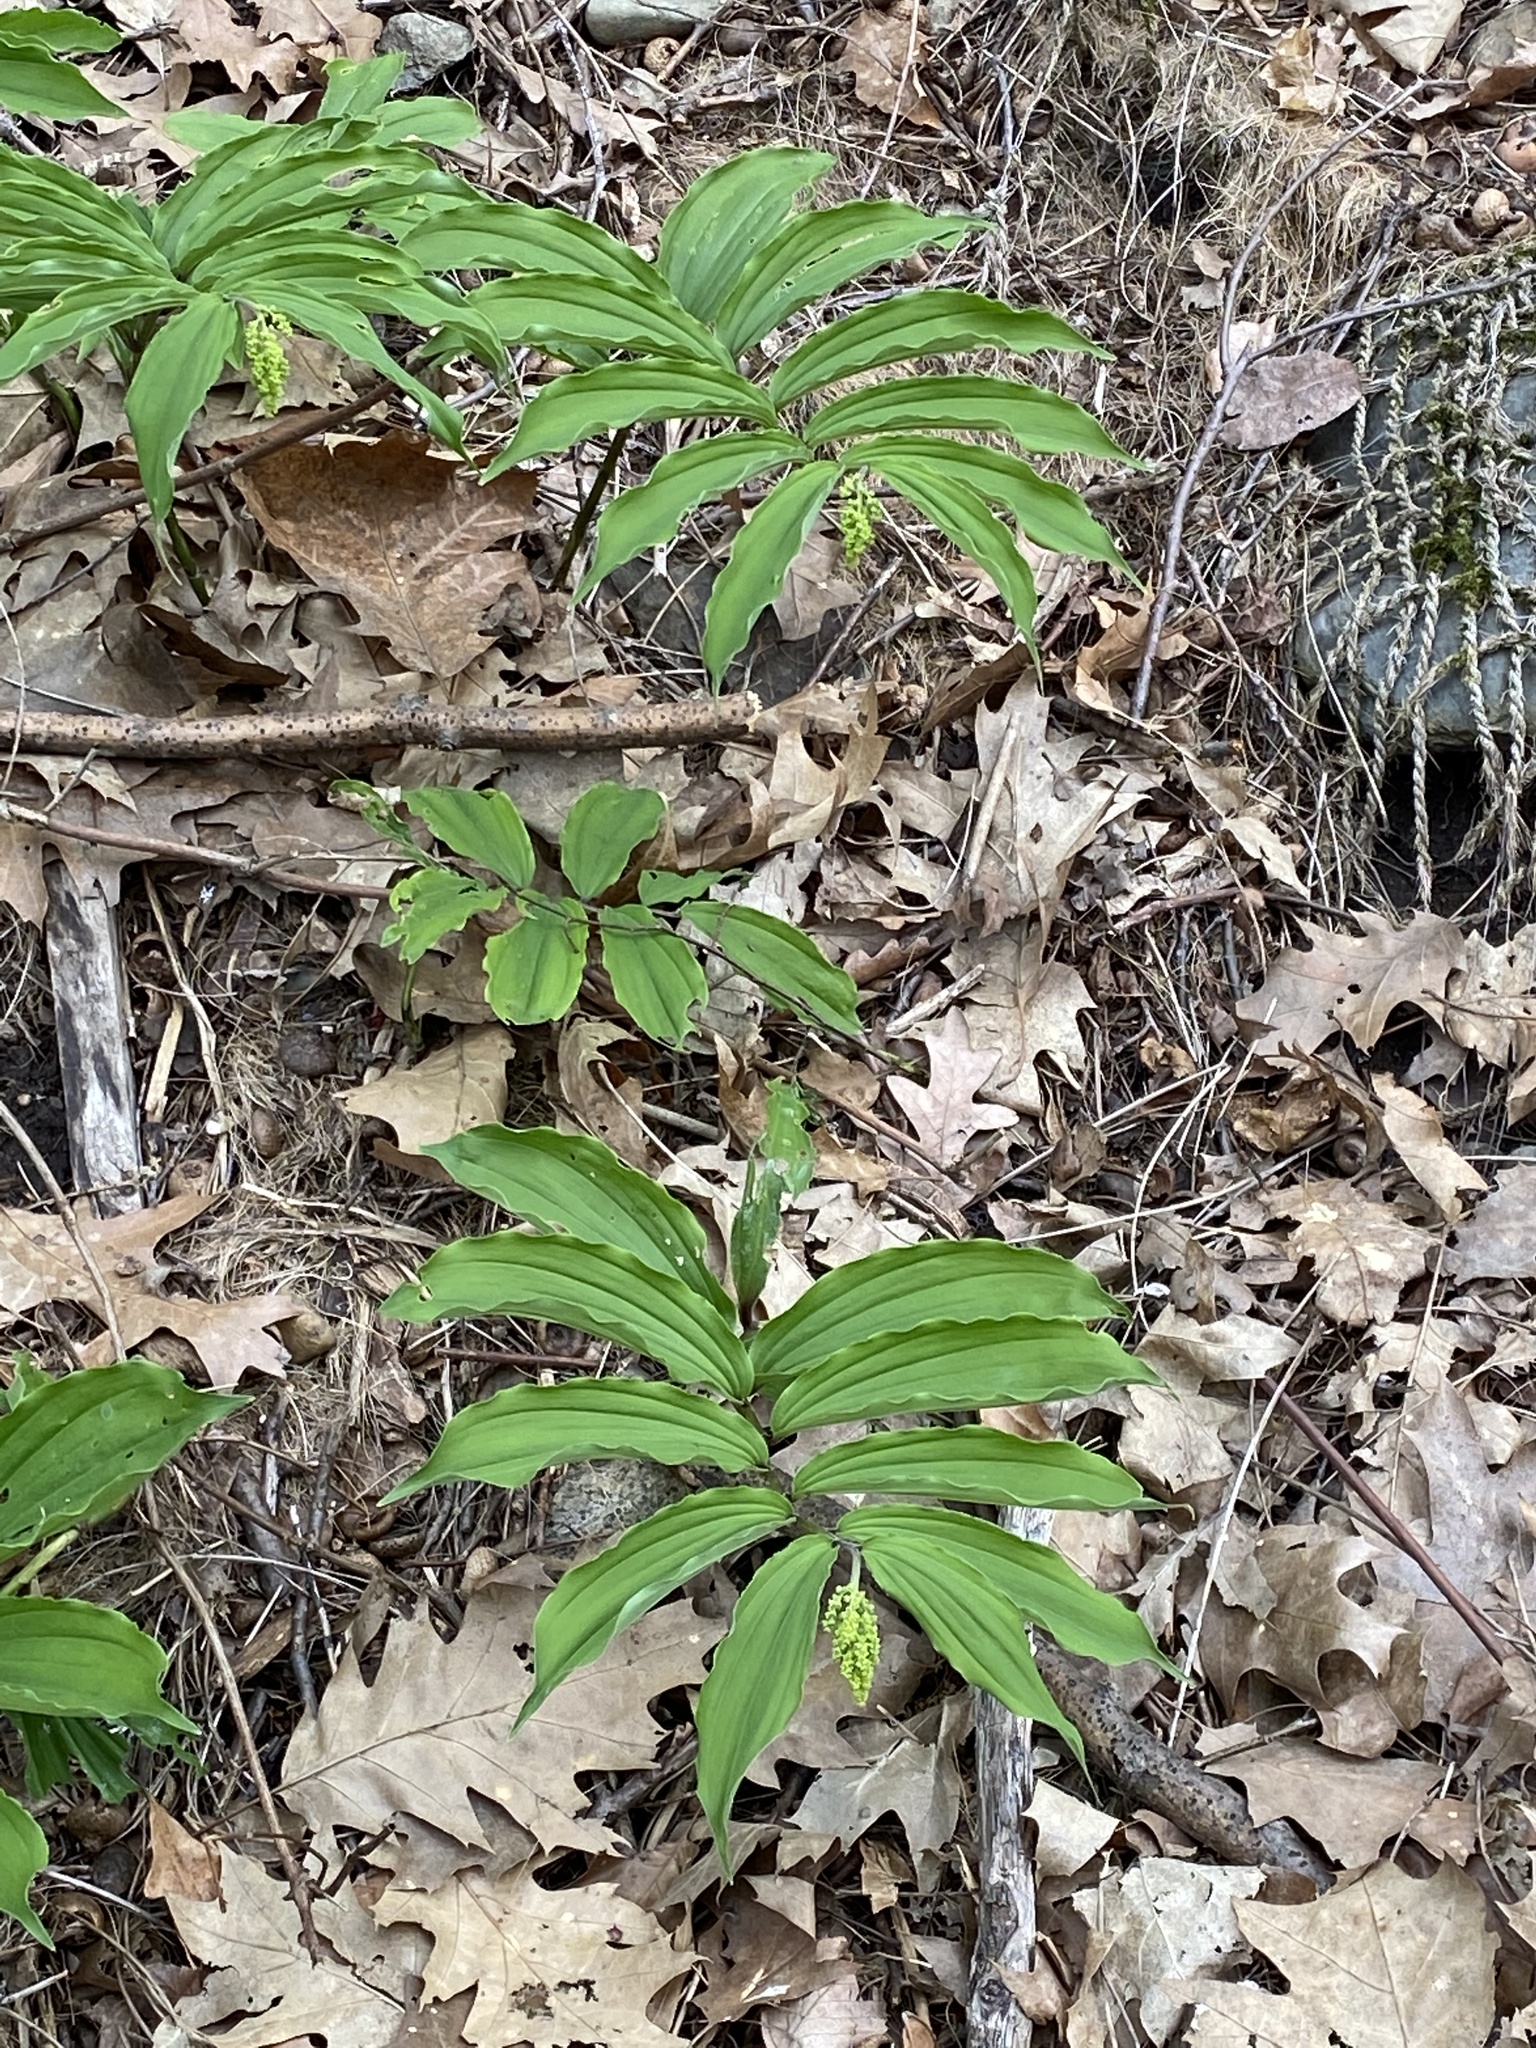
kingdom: Plantae
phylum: Tracheophyta
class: Liliopsida
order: Asparagales
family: Asparagaceae
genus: Maianthemum
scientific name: Maianthemum racemosum
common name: False spikenard
